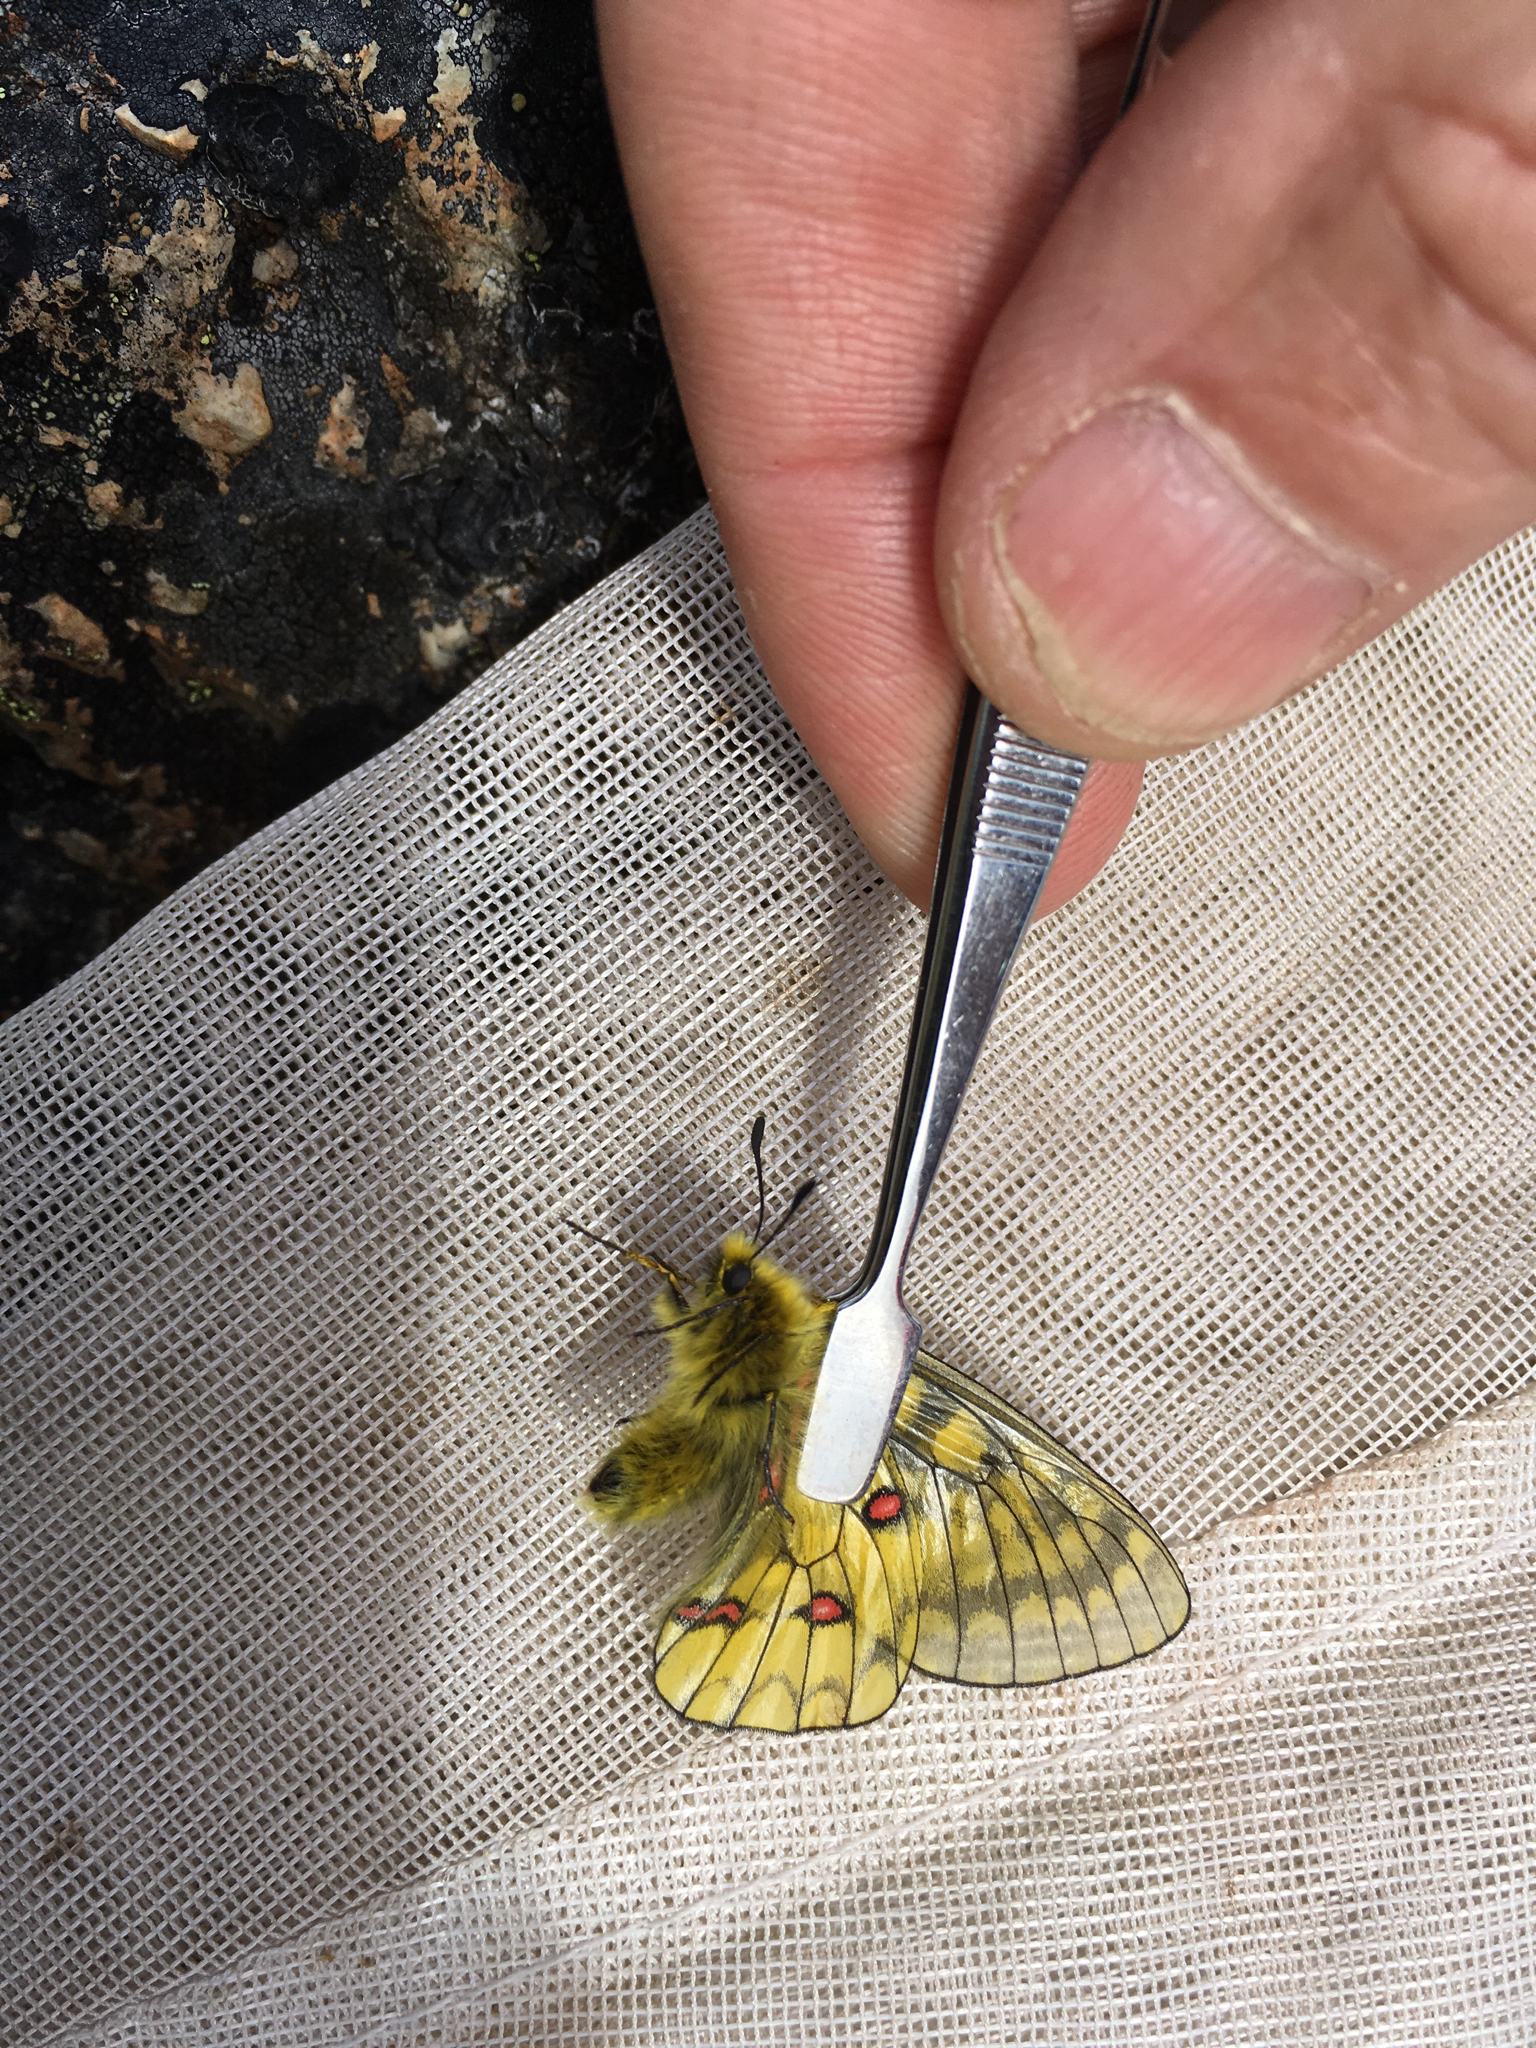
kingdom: Animalia
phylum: Arthropoda
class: Insecta
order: Lepidoptera
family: Papilionidae
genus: Parnassius
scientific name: Parnassius eversmanni
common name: Eversmann's parnassian
